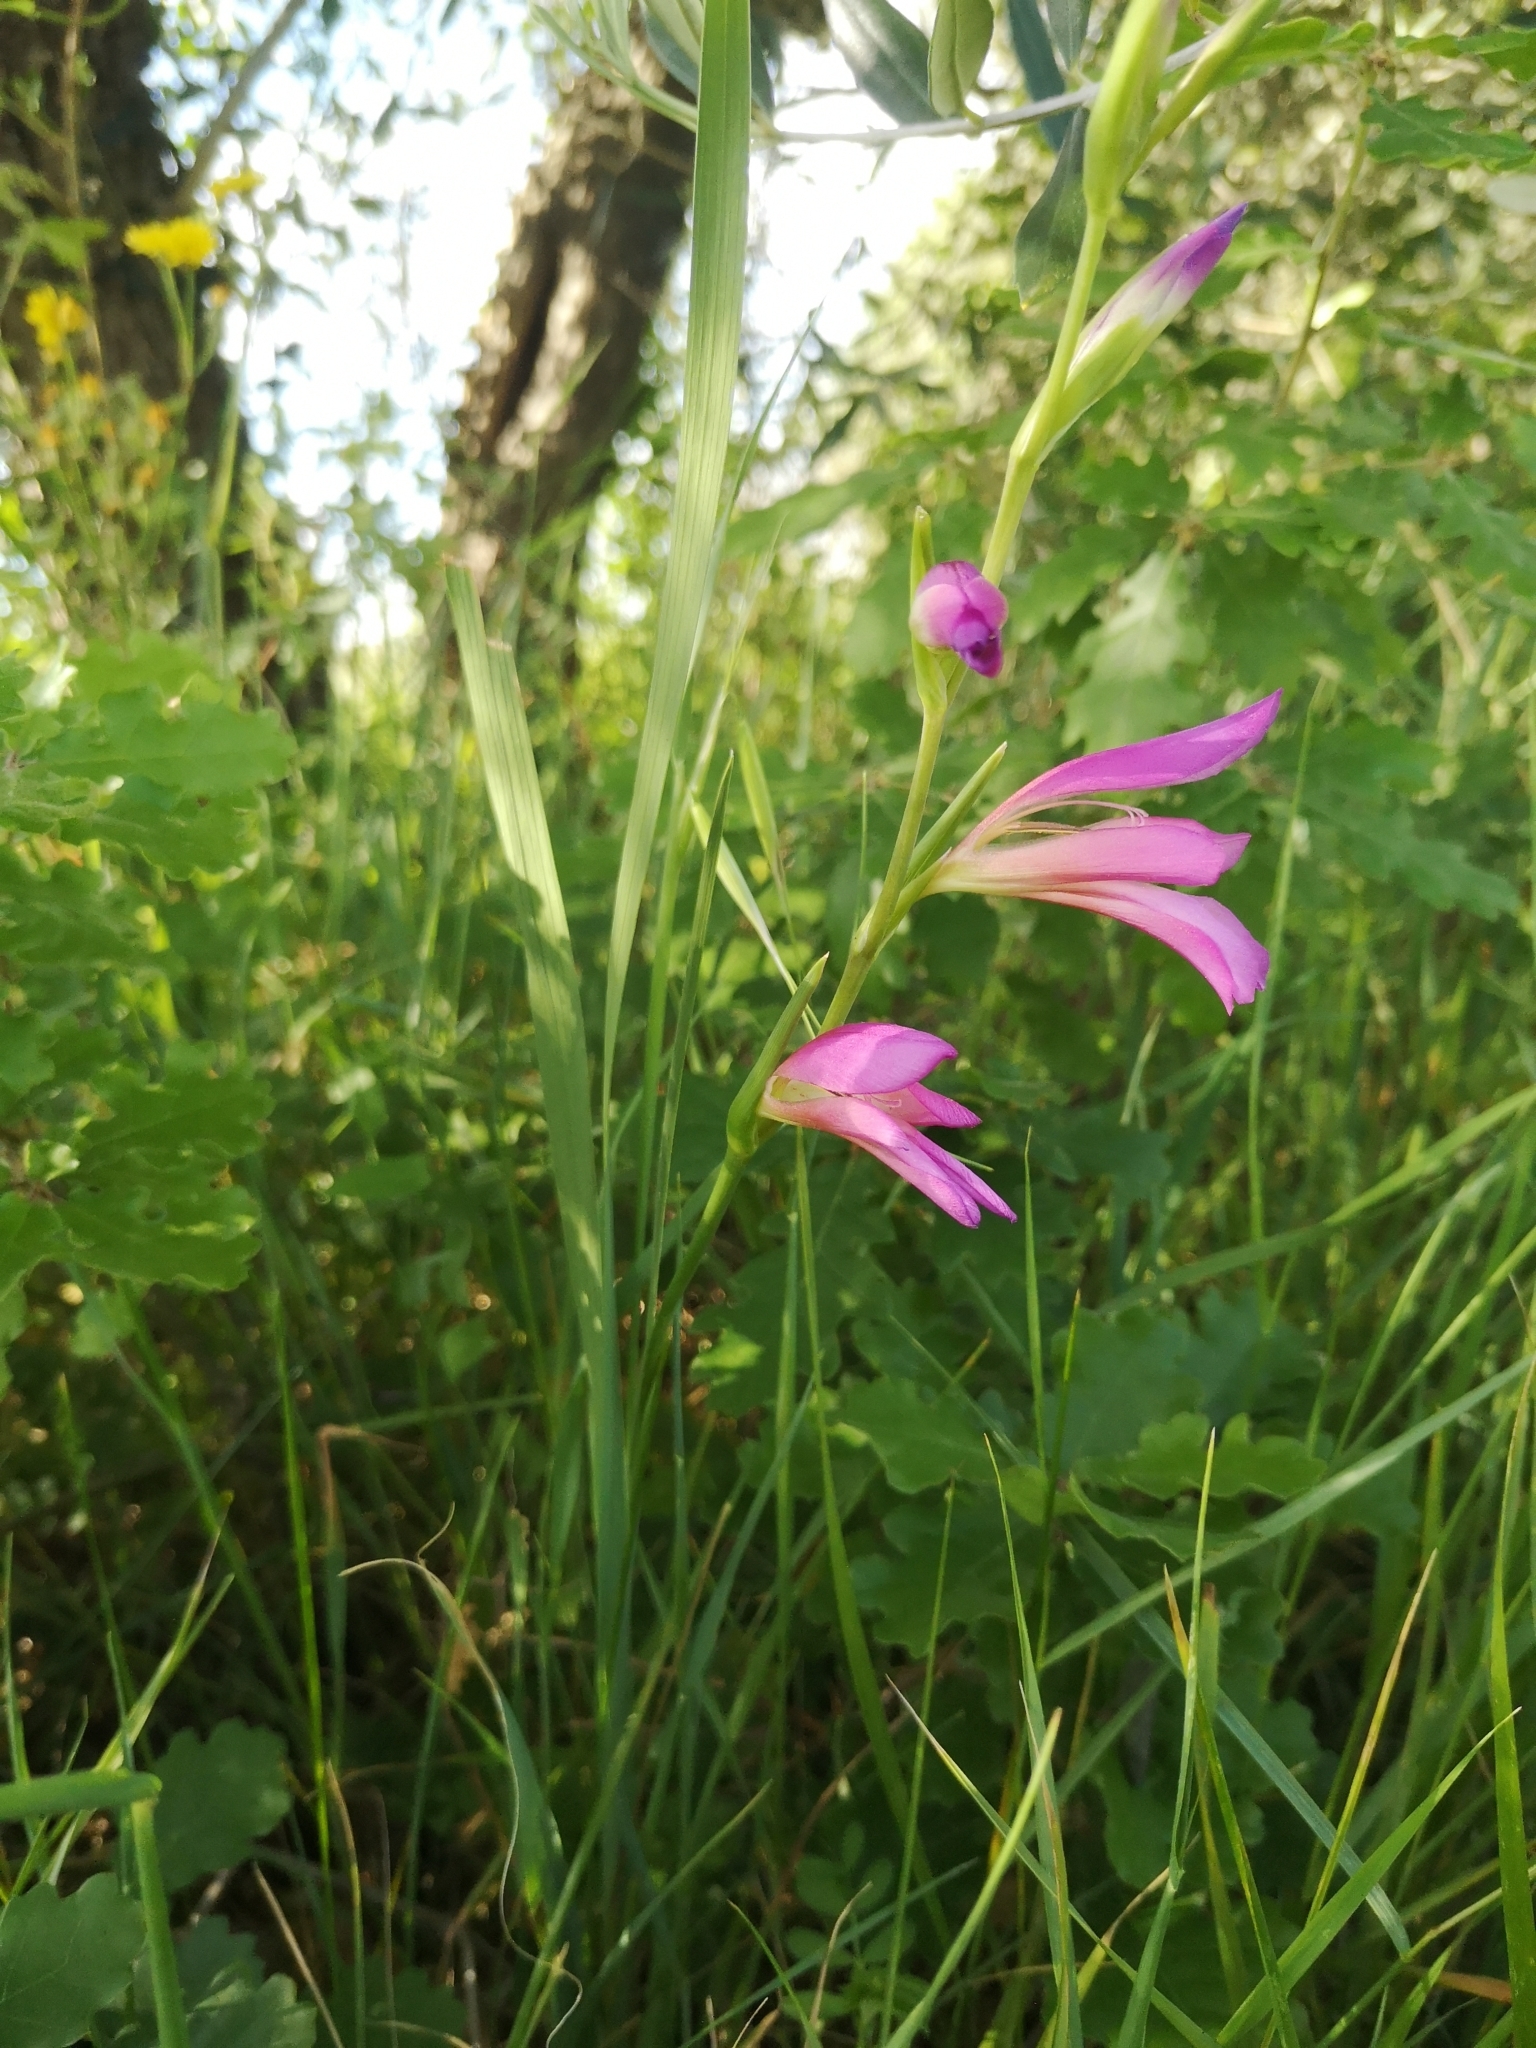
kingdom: Plantae
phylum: Tracheophyta
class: Liliopsida
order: Asparagales
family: Iridaceae
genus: Gladiolus
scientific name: Gladiolus italicus
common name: Field gladiolus
